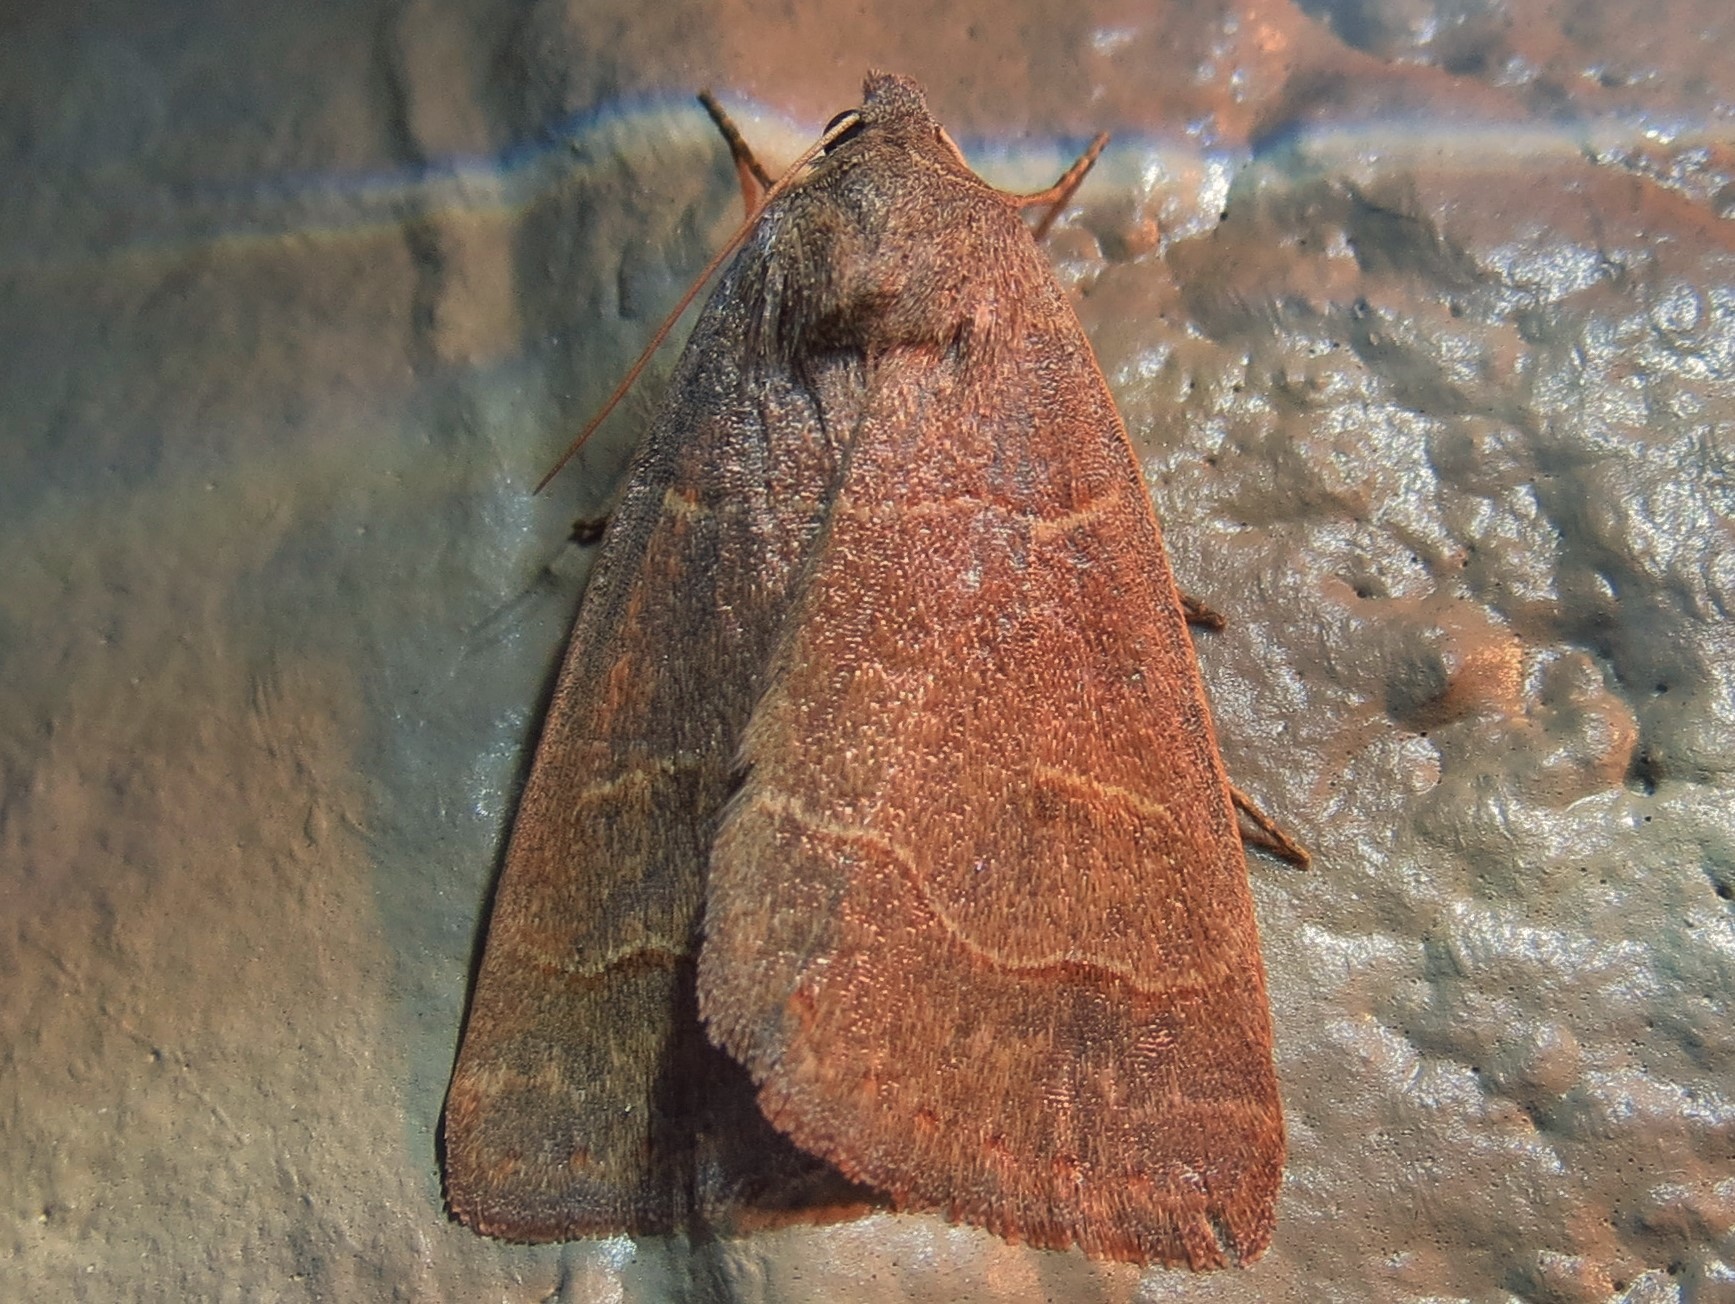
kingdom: Animalia
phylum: Arthropoda
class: Insecta
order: Lepidoptera
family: Erebidae
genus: Phoberia
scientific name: Phoberia atomaris
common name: Common oak moth
